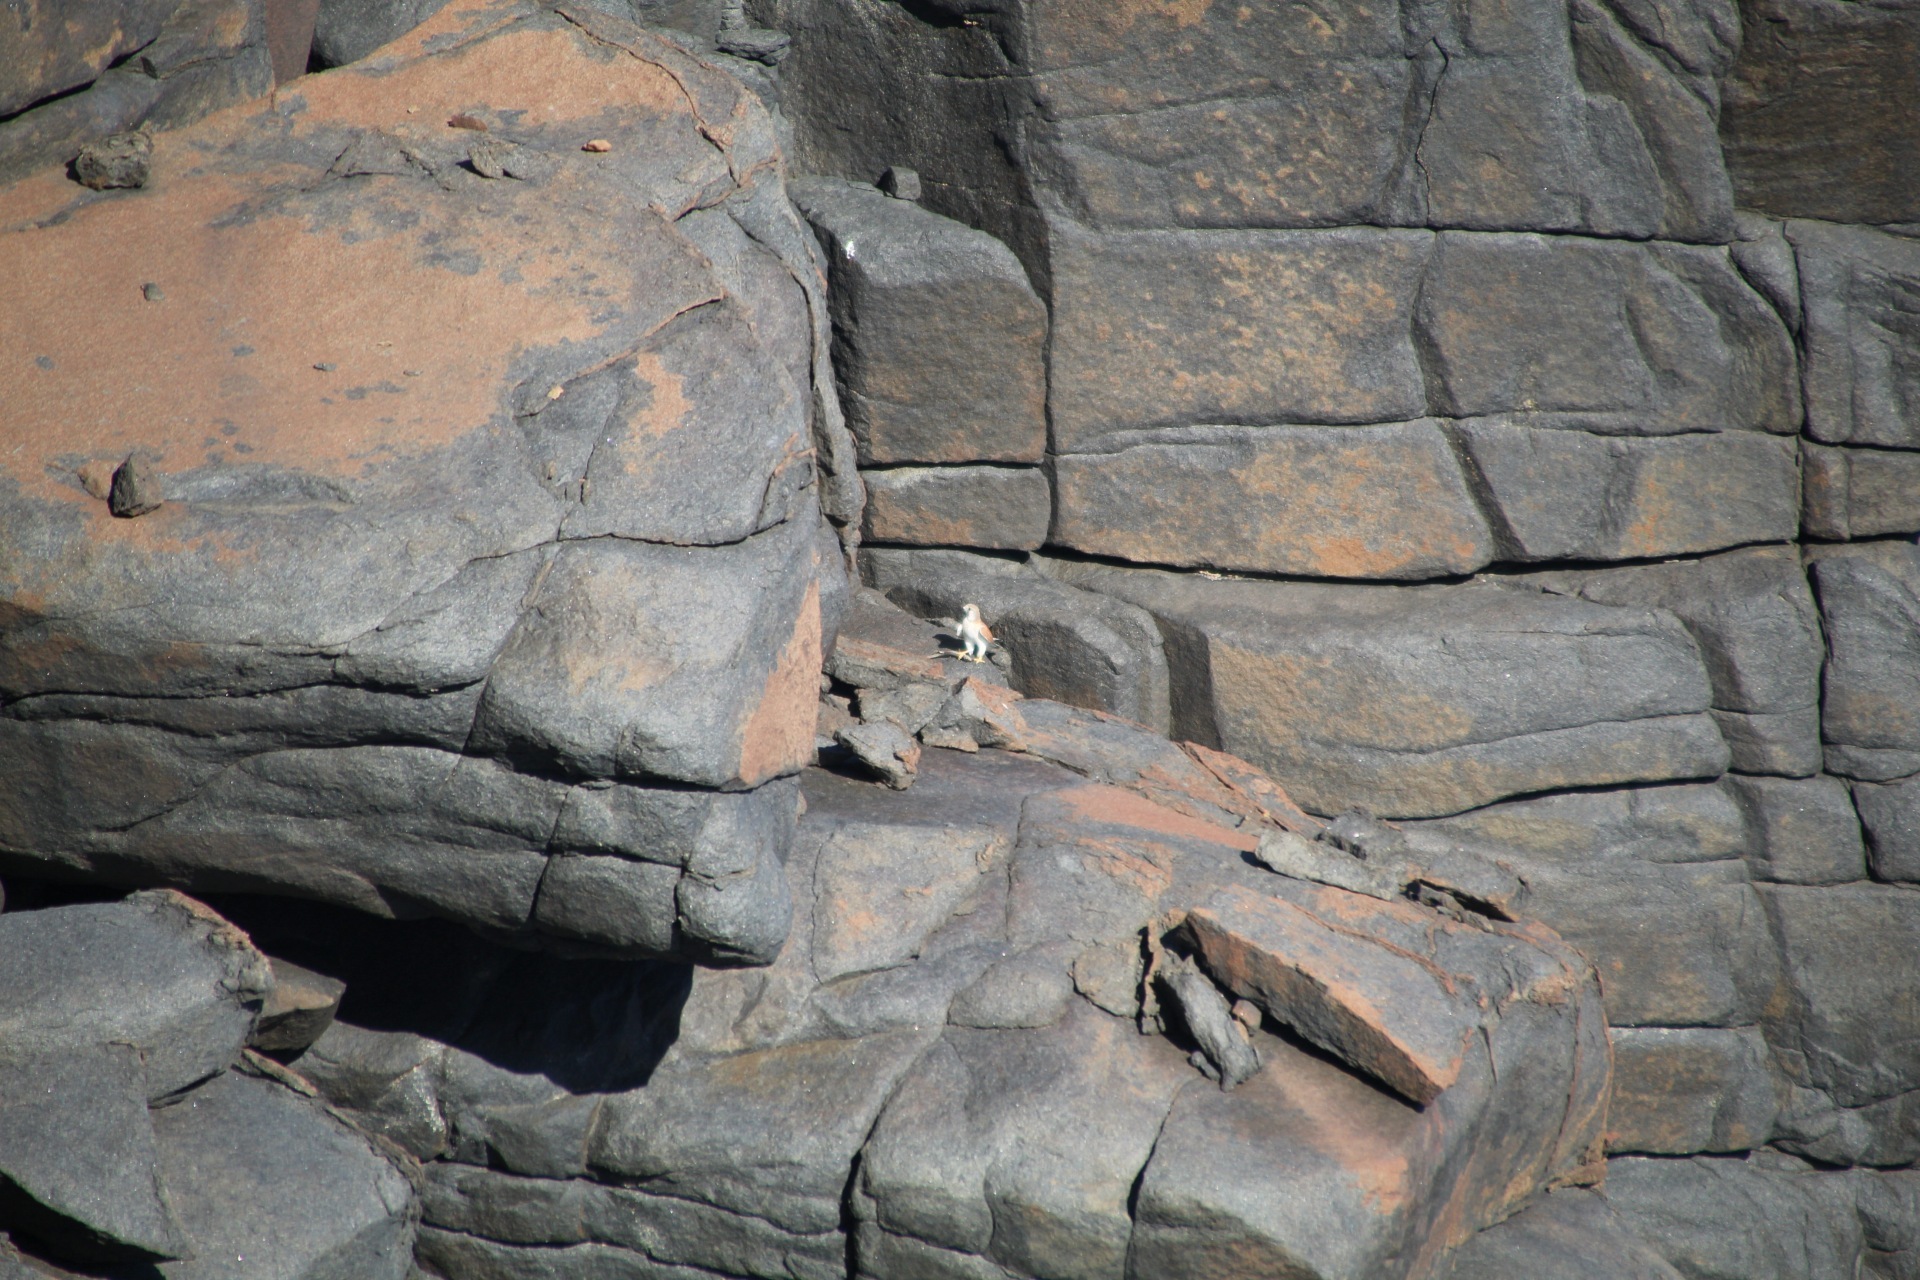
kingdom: Animalia
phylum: Chordata
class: Aves
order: Falconiformes
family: Falconidae
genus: Falco
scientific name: Falco cenchroides
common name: Nankeen kestrel
